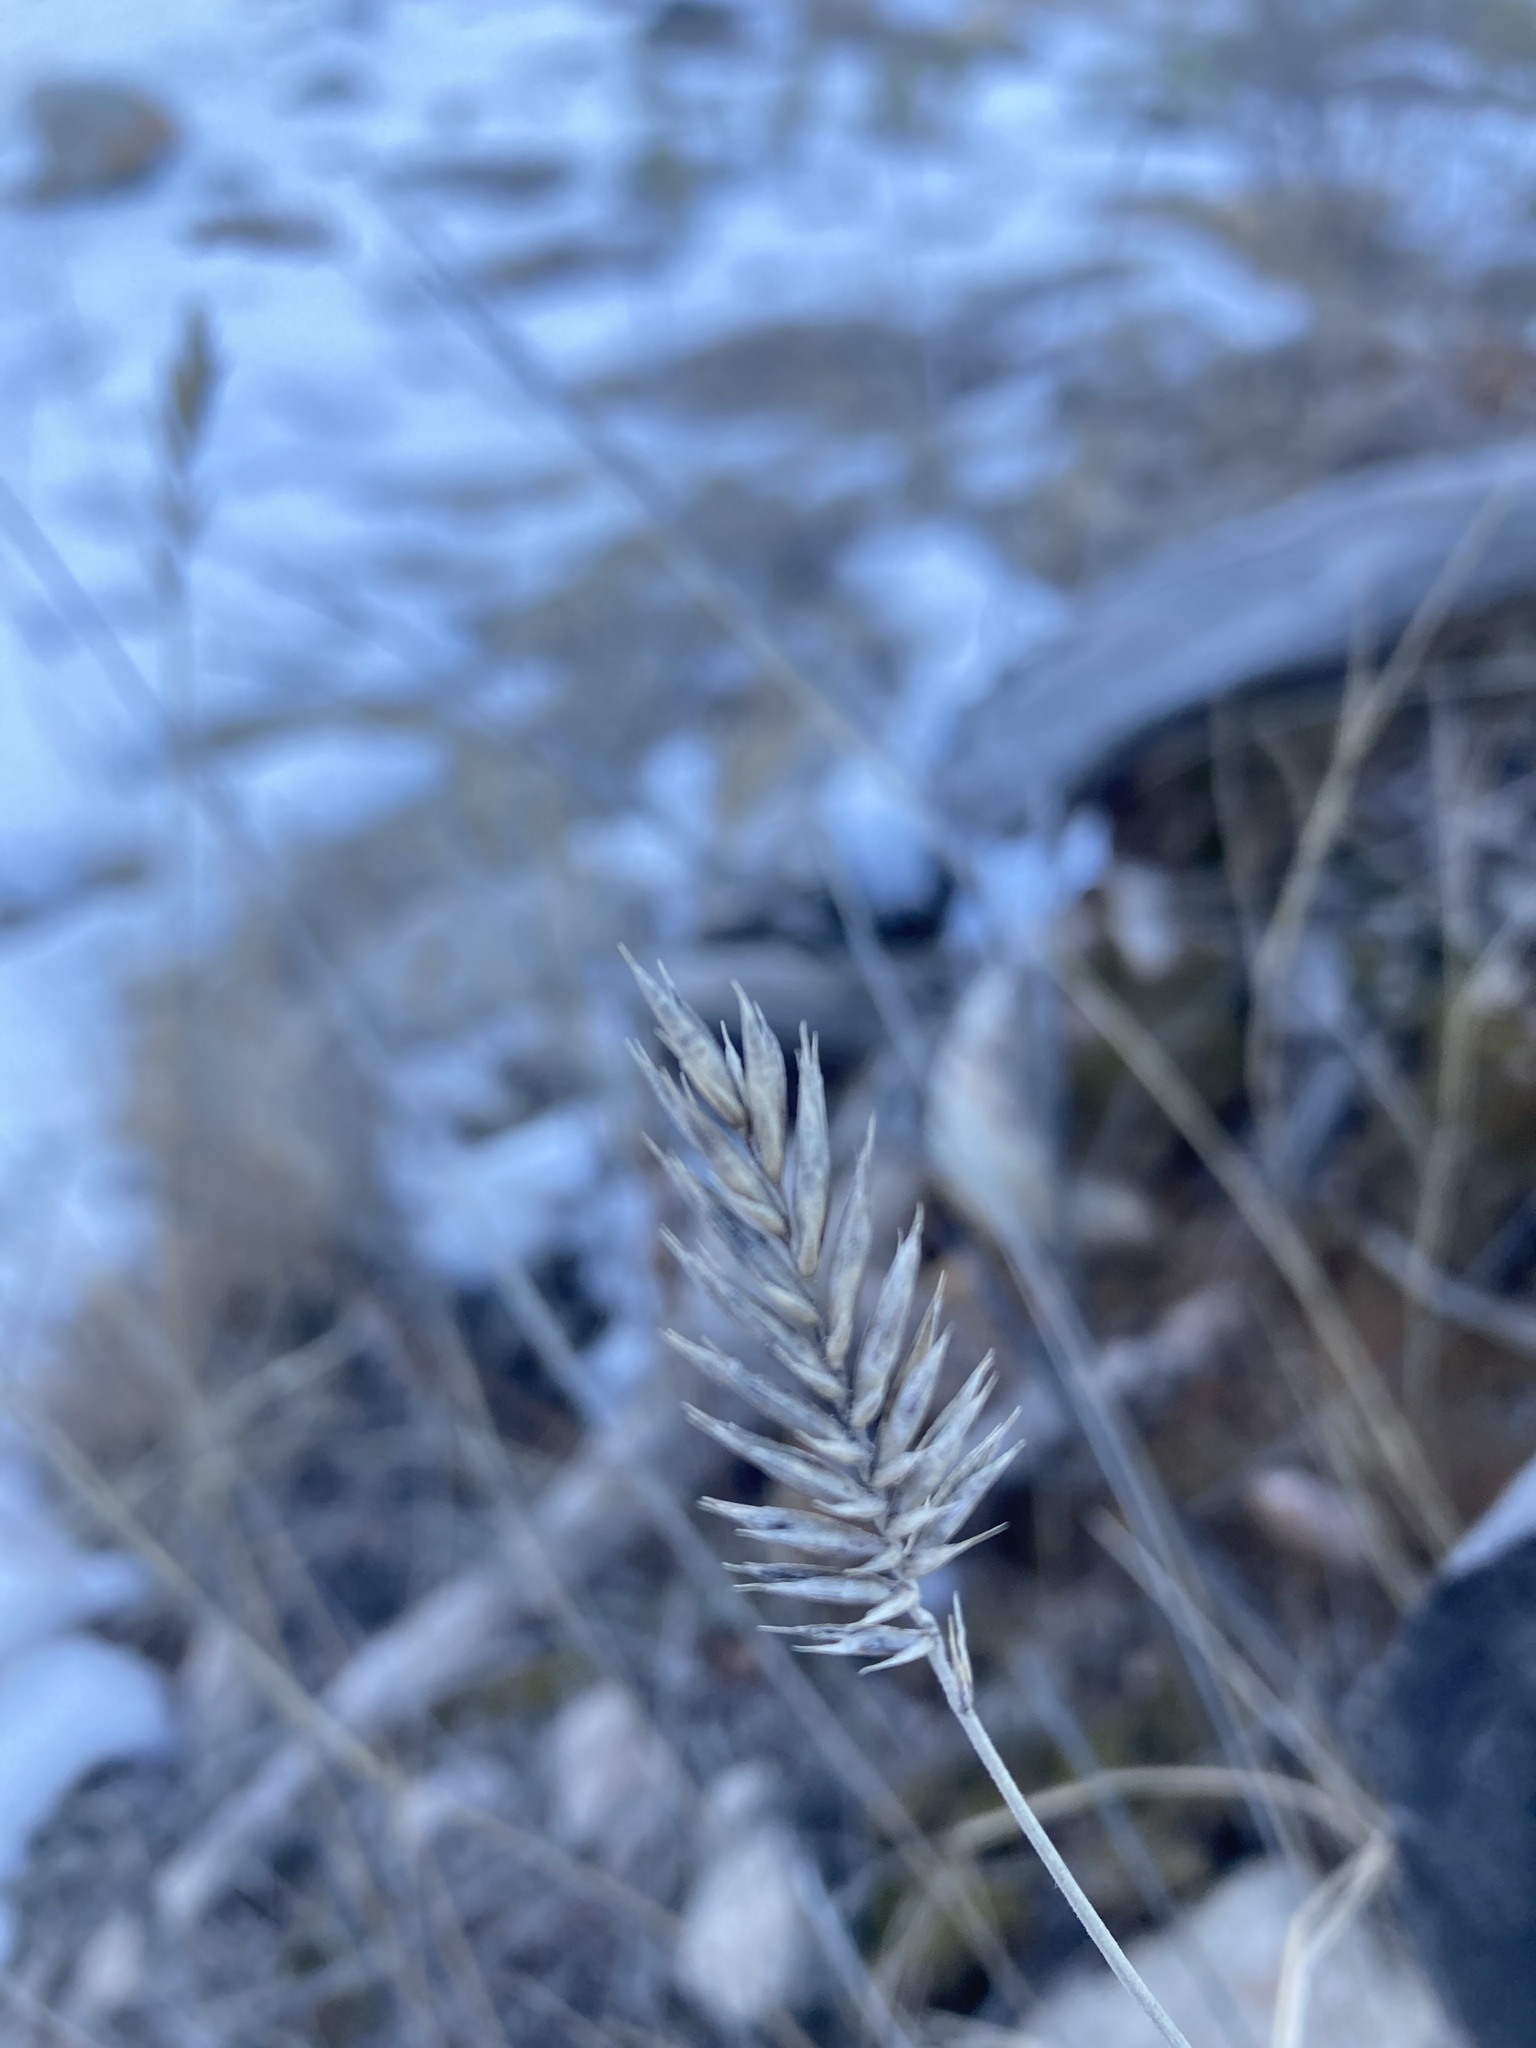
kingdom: Plantae
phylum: Tracheophyta
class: Liliopsida
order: Poales
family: Poaceae
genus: Agropyron
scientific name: Agropyron cristatum
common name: Crested wheatgrass
